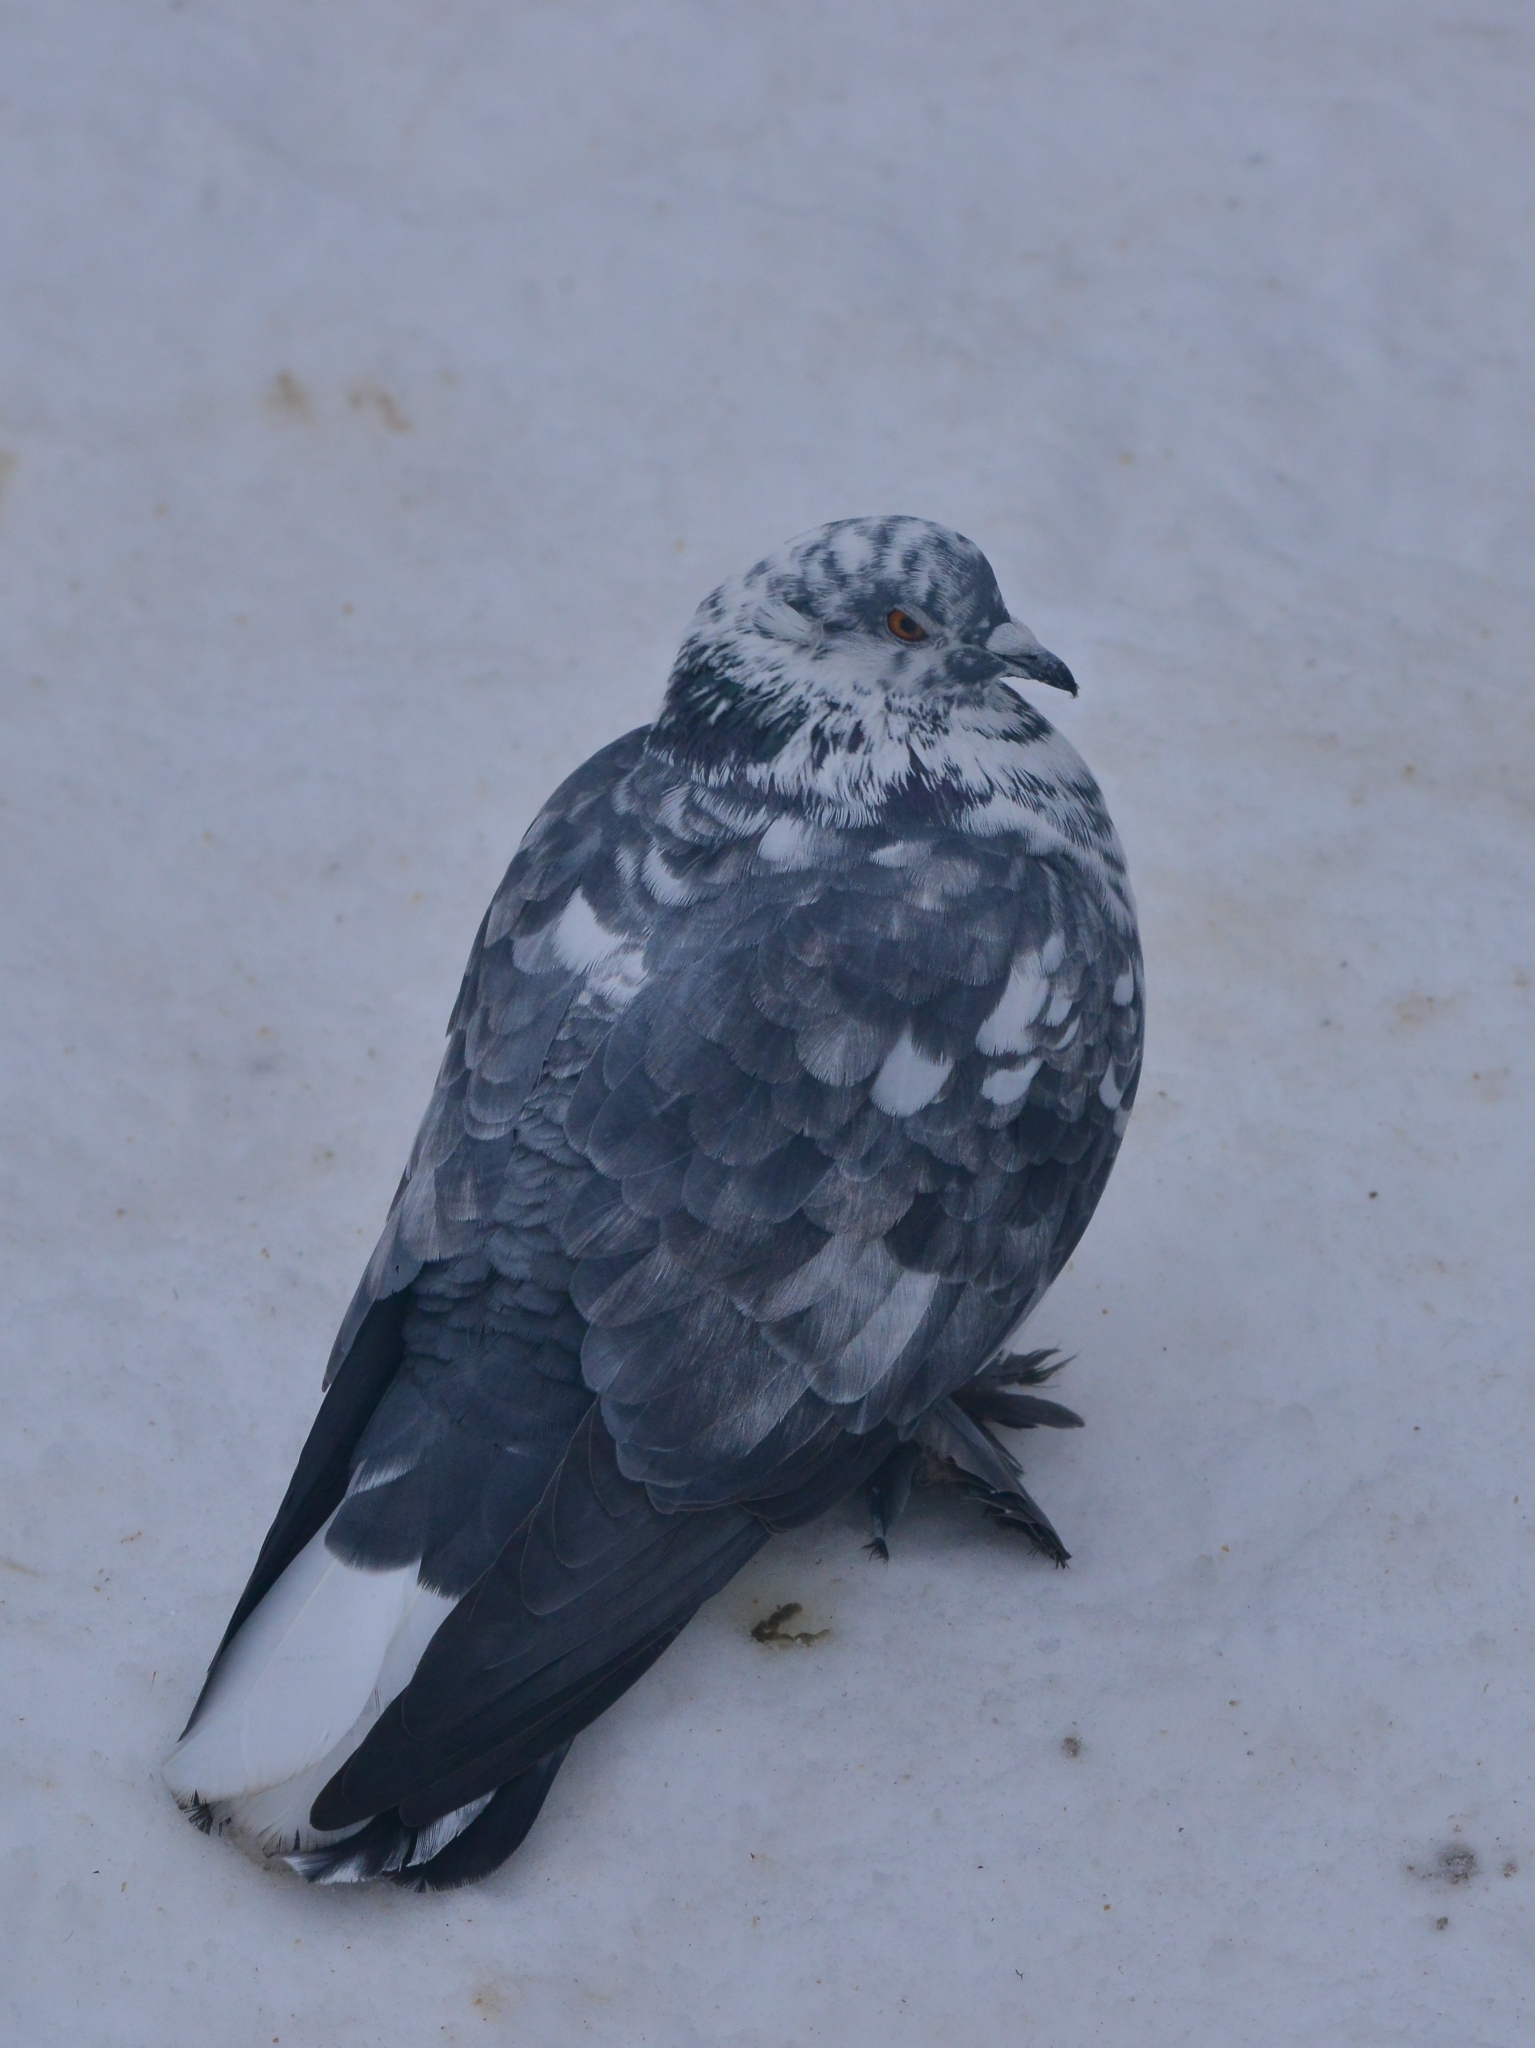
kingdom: Animalia
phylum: Chordata
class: Aves
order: Columbiformes
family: Columbidae
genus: Columba
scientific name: Columba livia
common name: Rock pigeon
